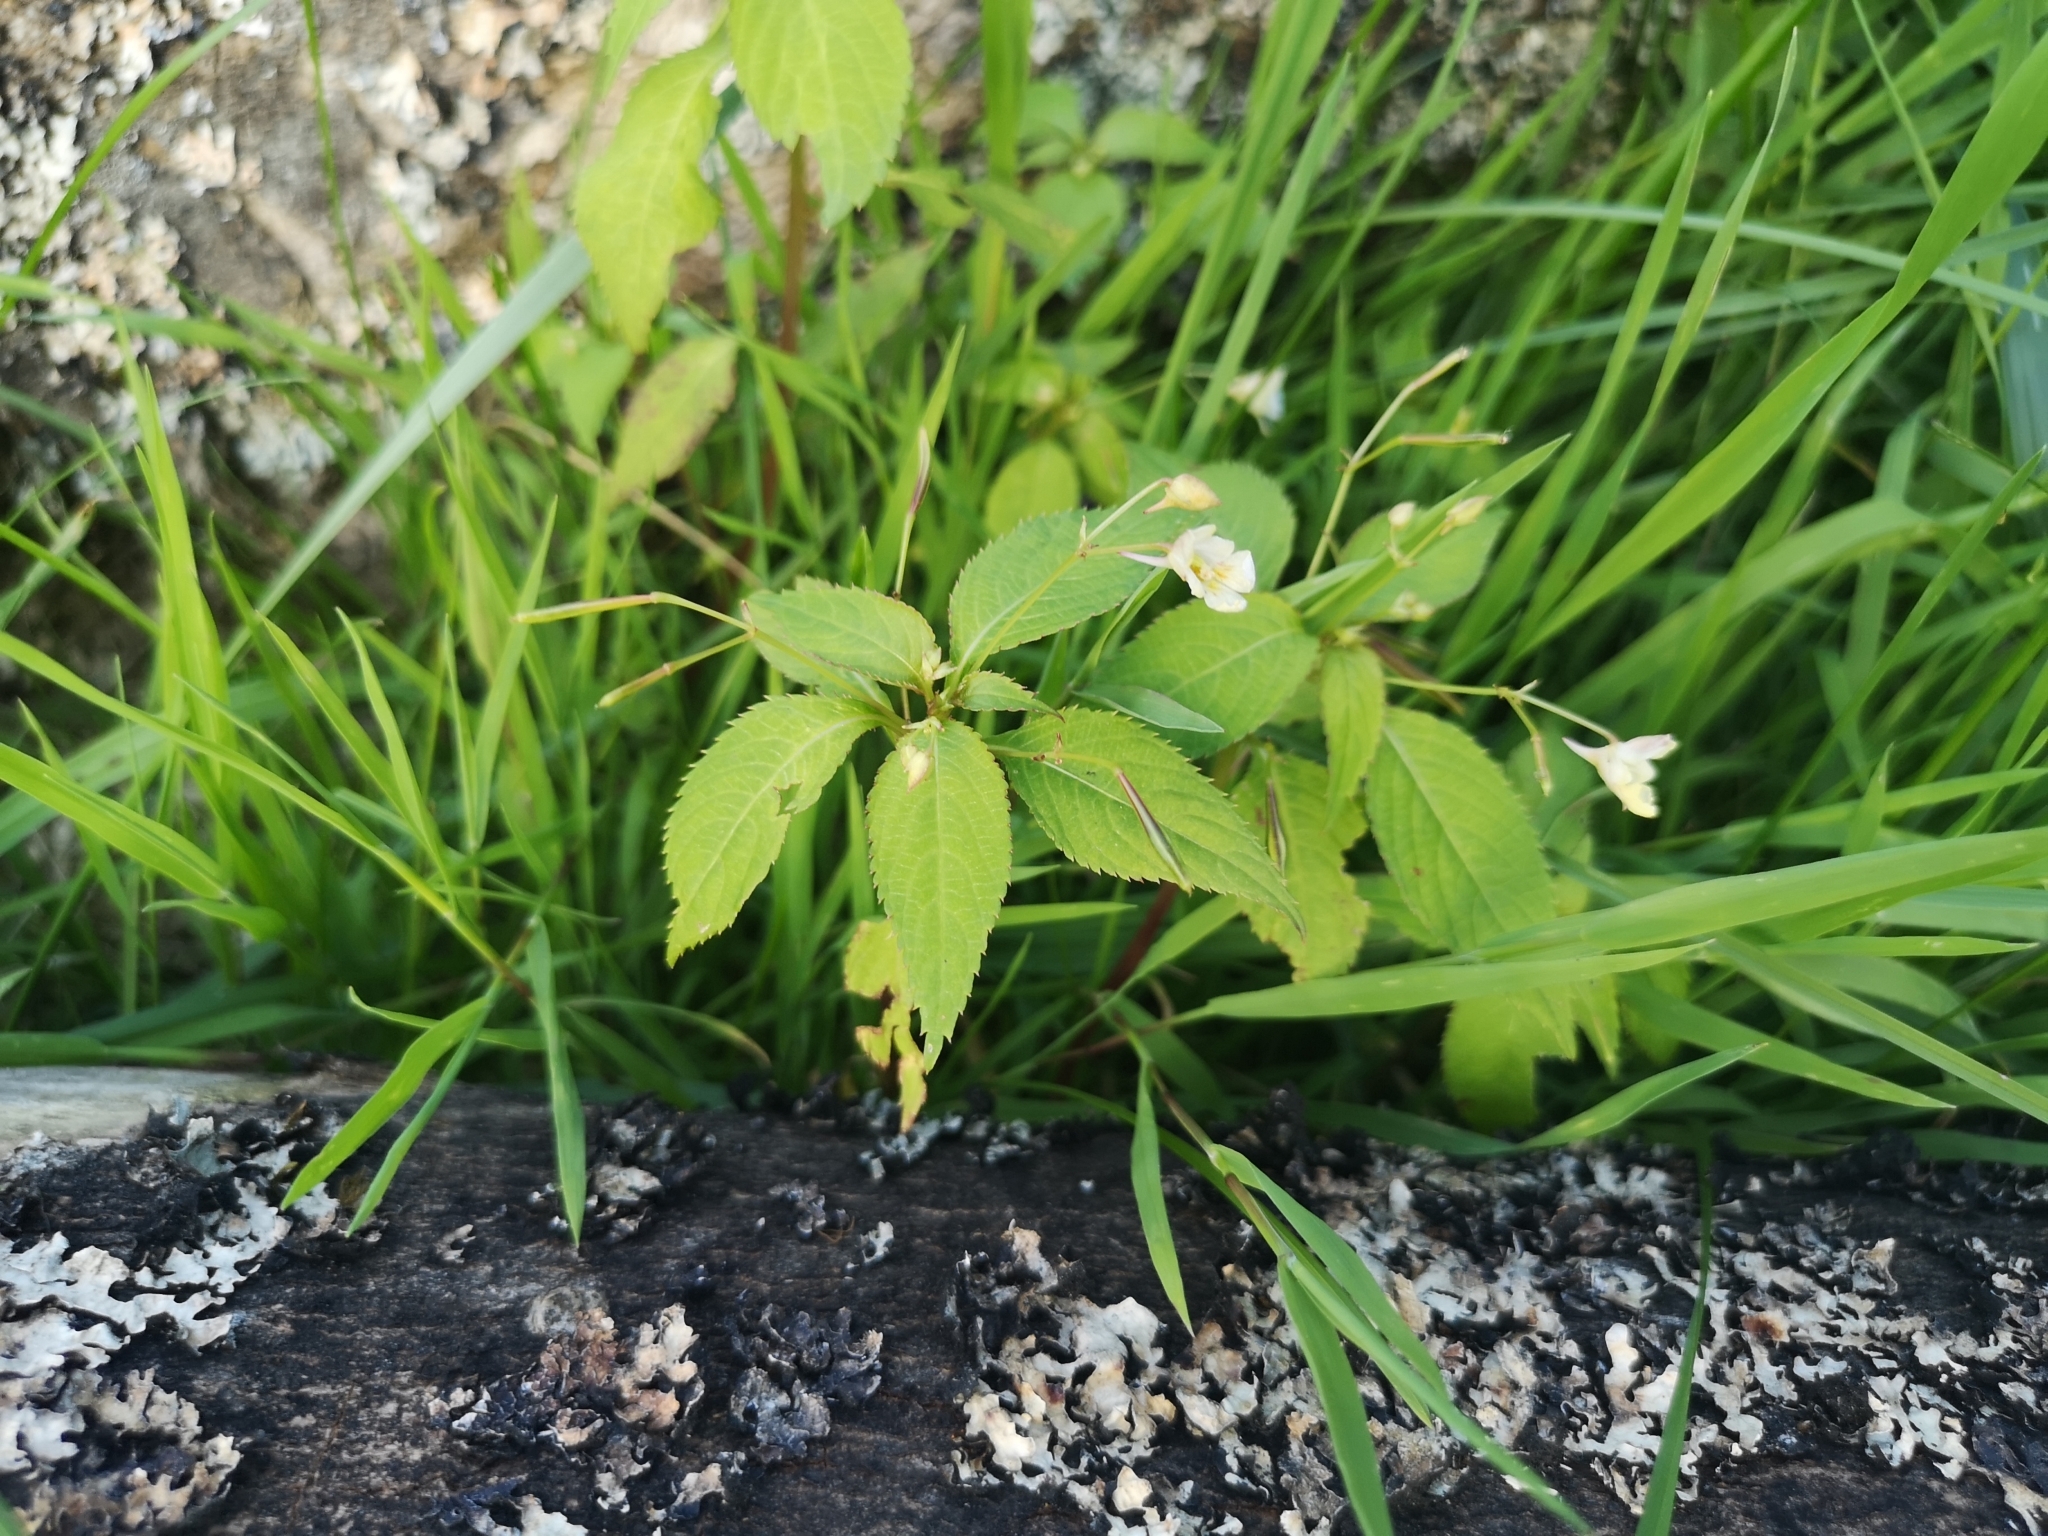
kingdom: Plantae
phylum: Tracheophyta
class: Magnoliopsida
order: Ericales
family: Balsaminaceae
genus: Impatiens
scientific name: Impatiens parviflora
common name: Small balsam
